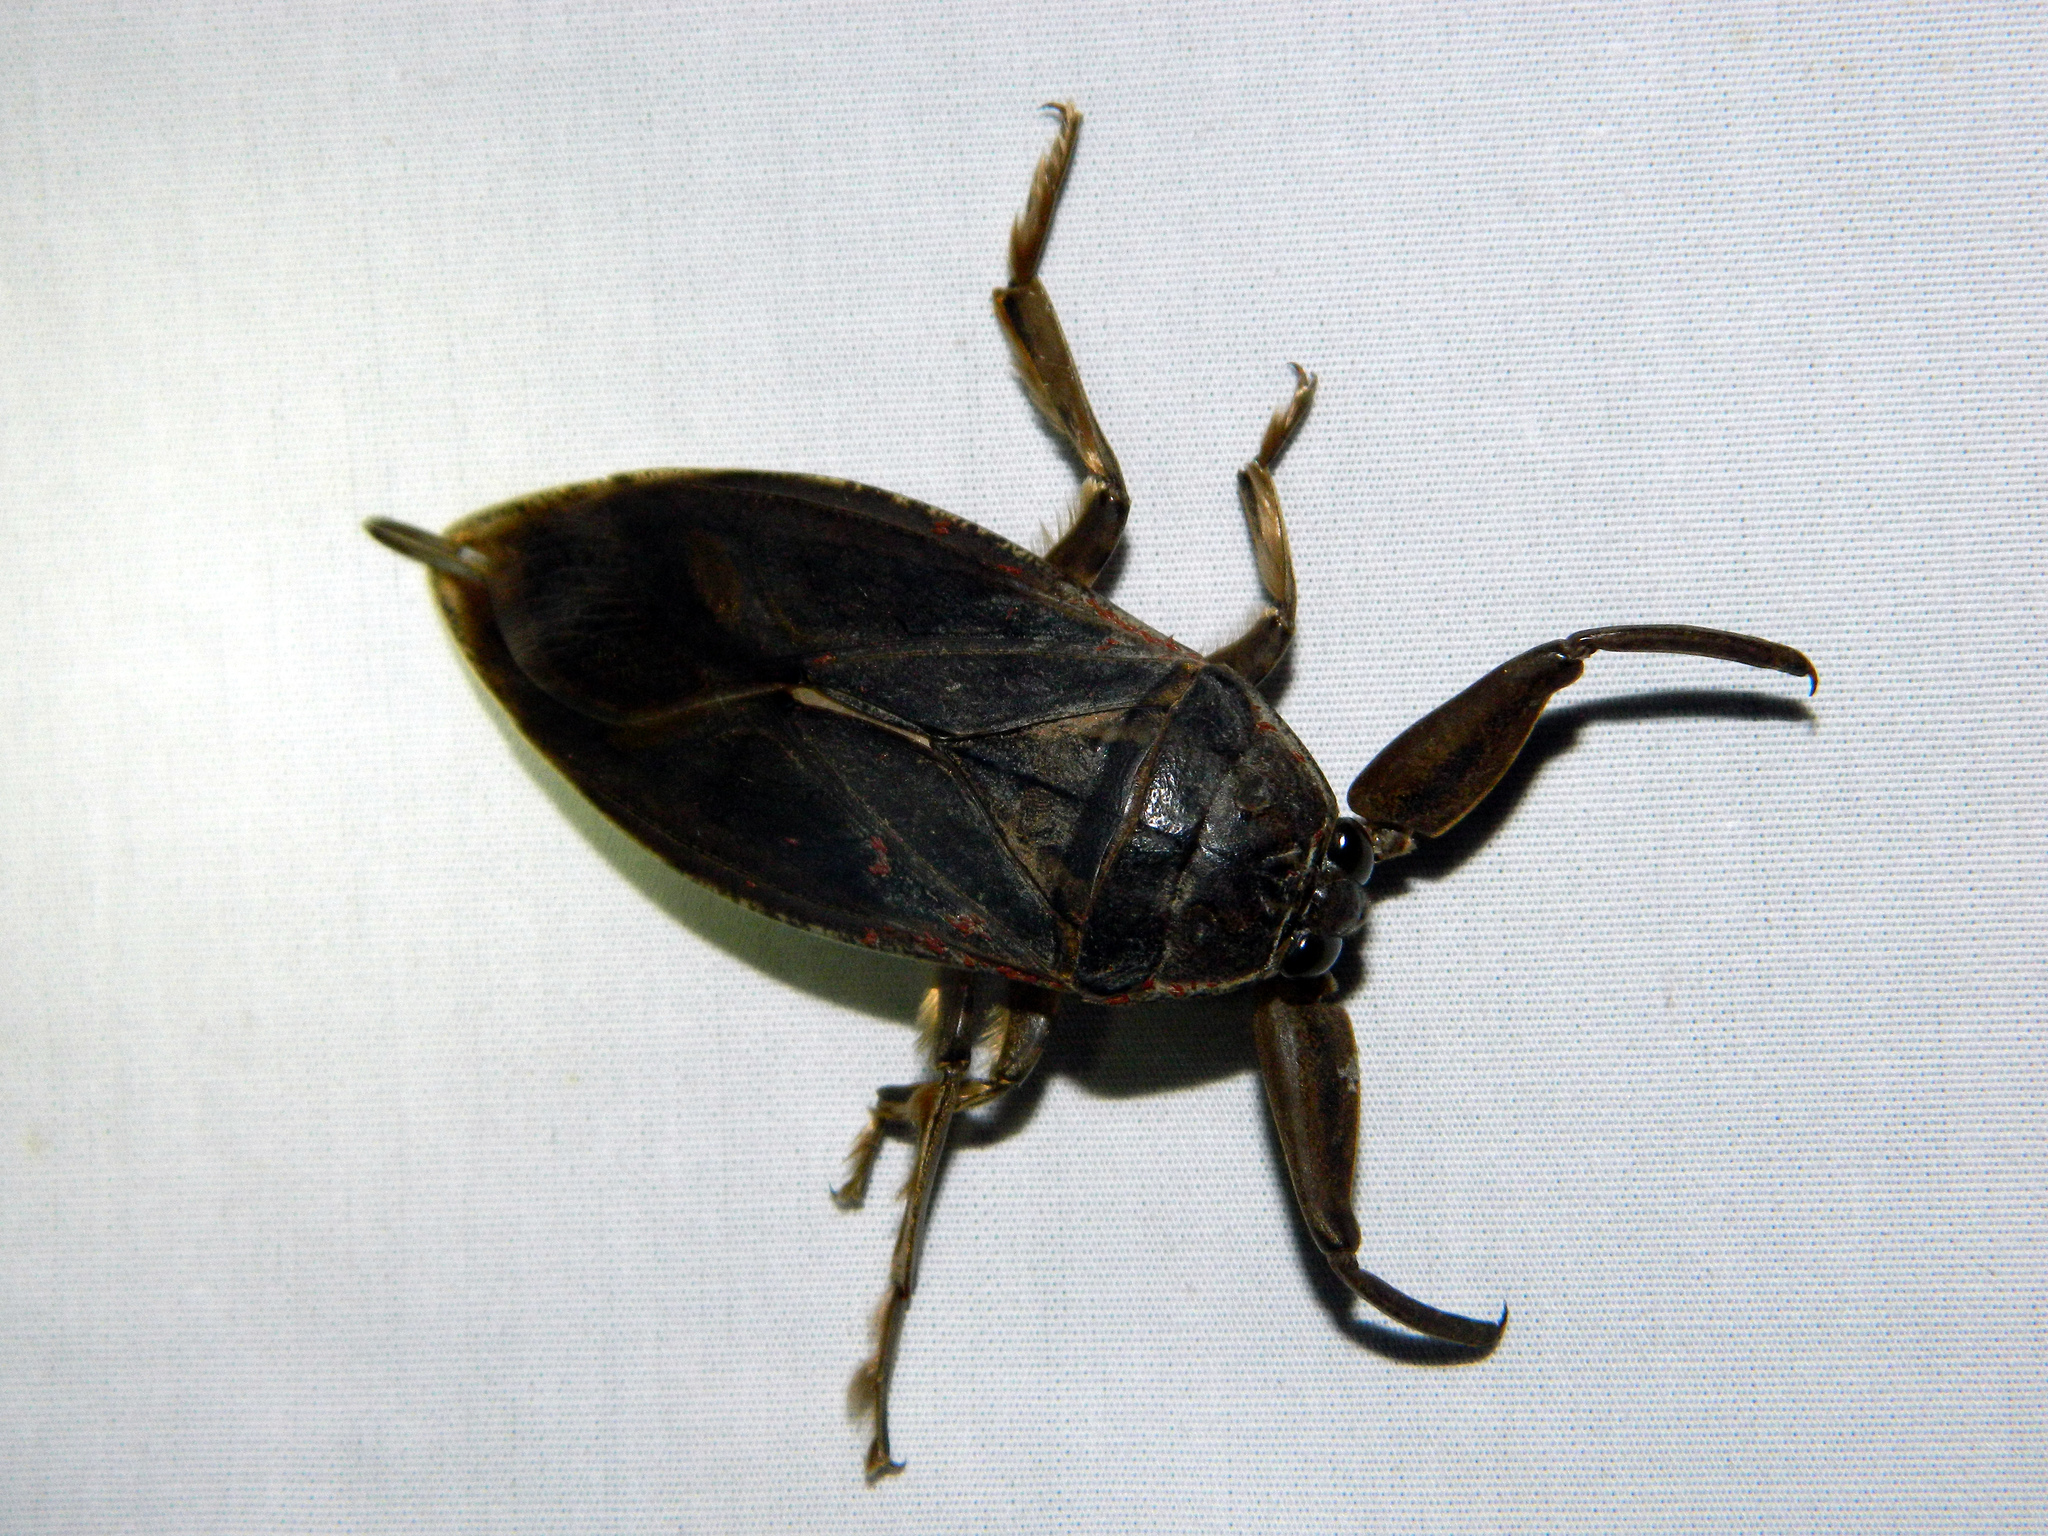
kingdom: Animalia
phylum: Arthropoda
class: Insecta
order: Hemiptera
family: Belostomatidae
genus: Lethocerus
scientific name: Lethocerus americanus
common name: Giant water bug
